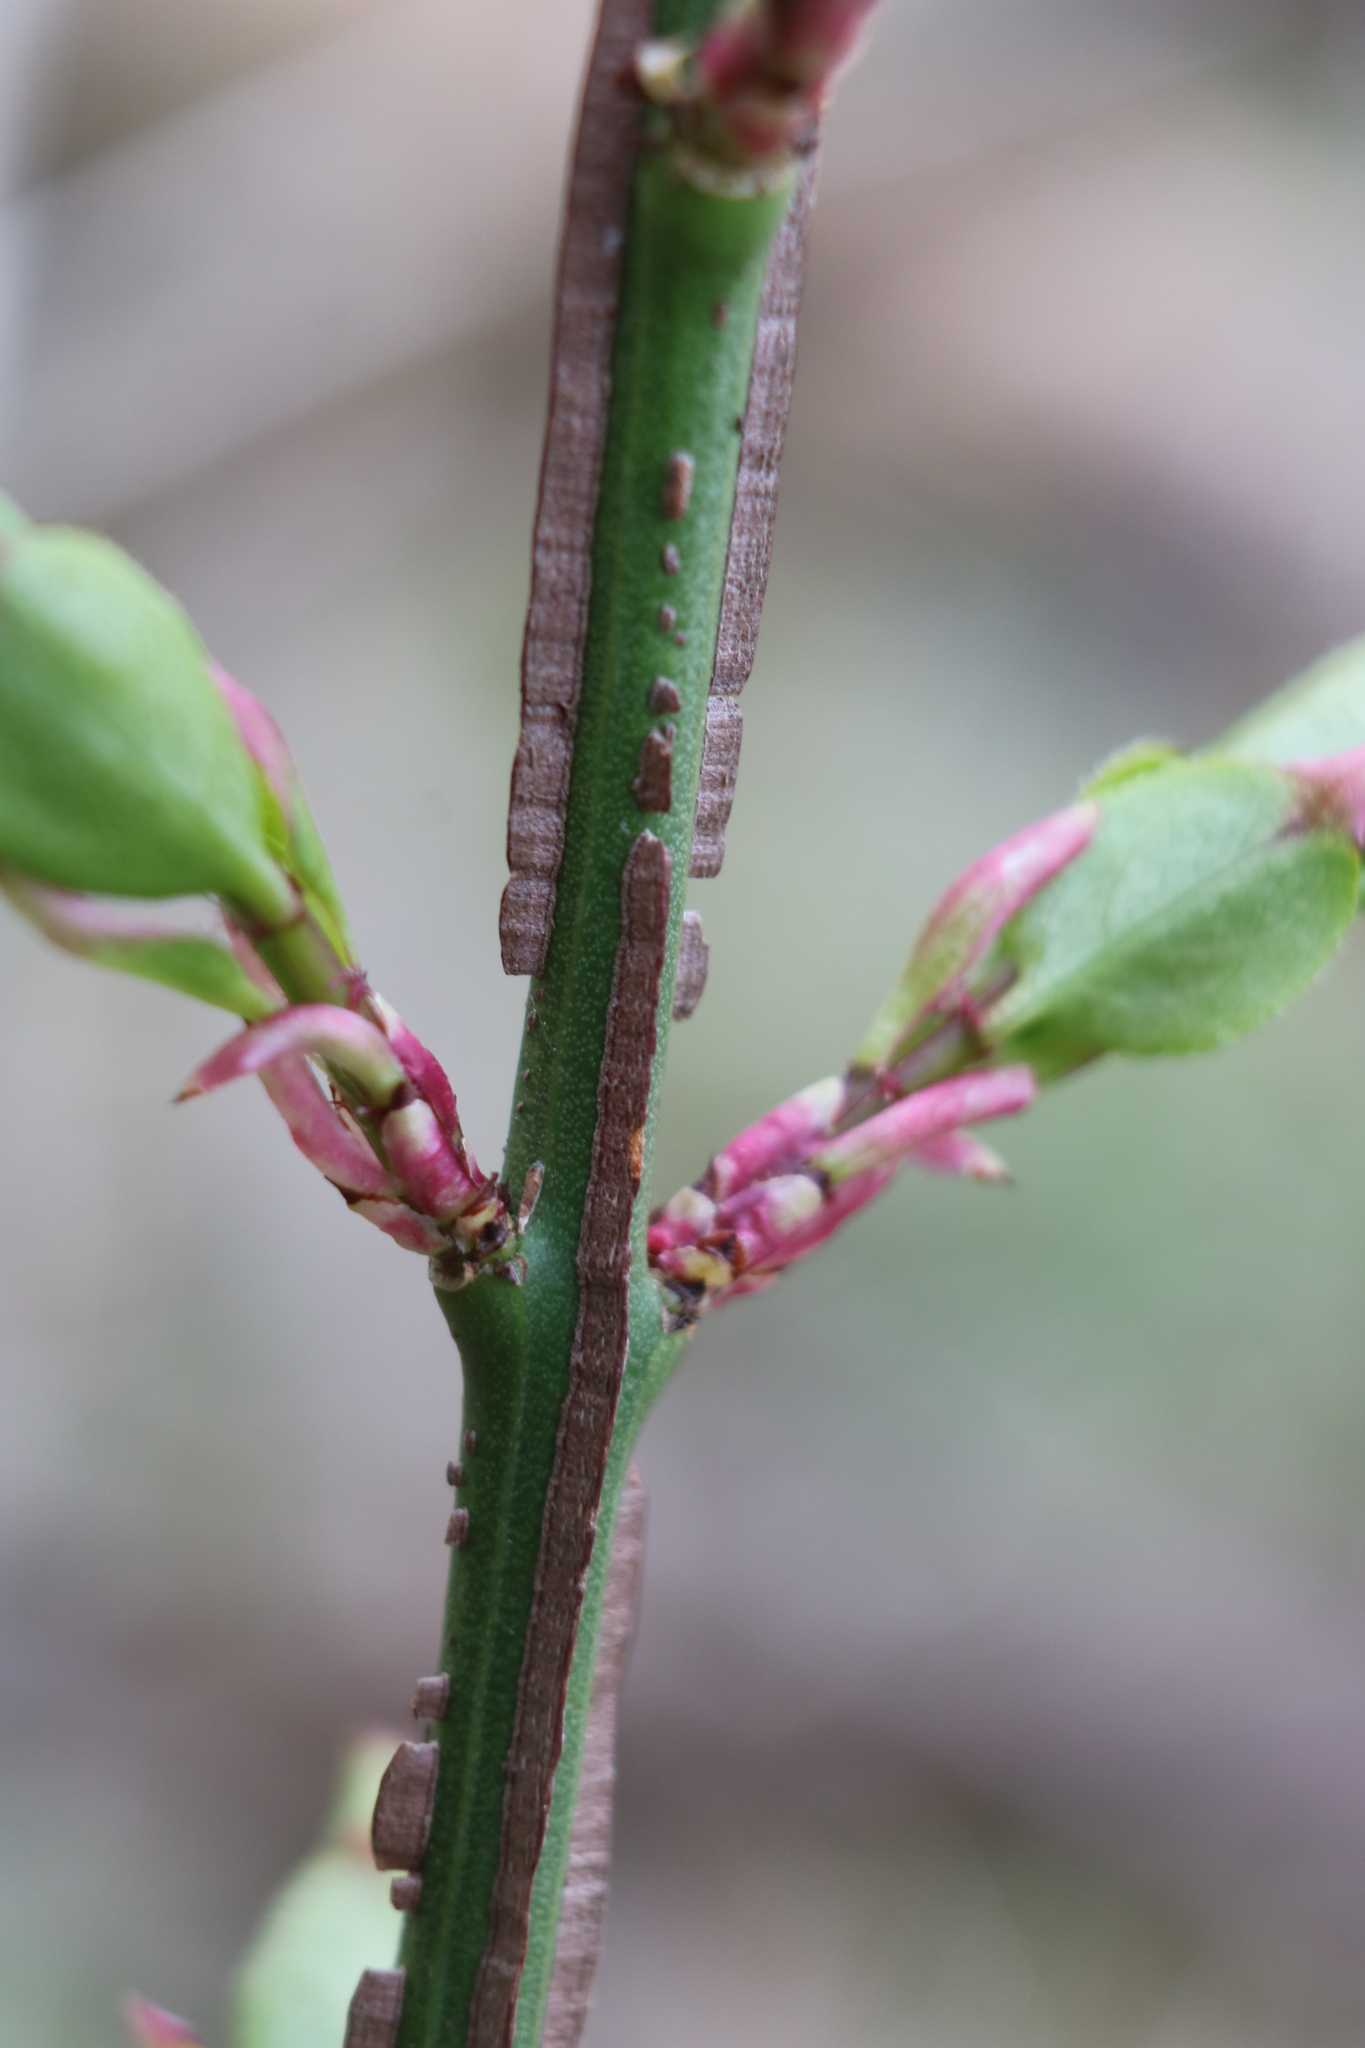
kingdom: Plantae
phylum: Tracheophyta
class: Magnoliopsida
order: Celastrales
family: Celastraceae
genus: Euonymus
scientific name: Euonymus alatus
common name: Winged euonymus
